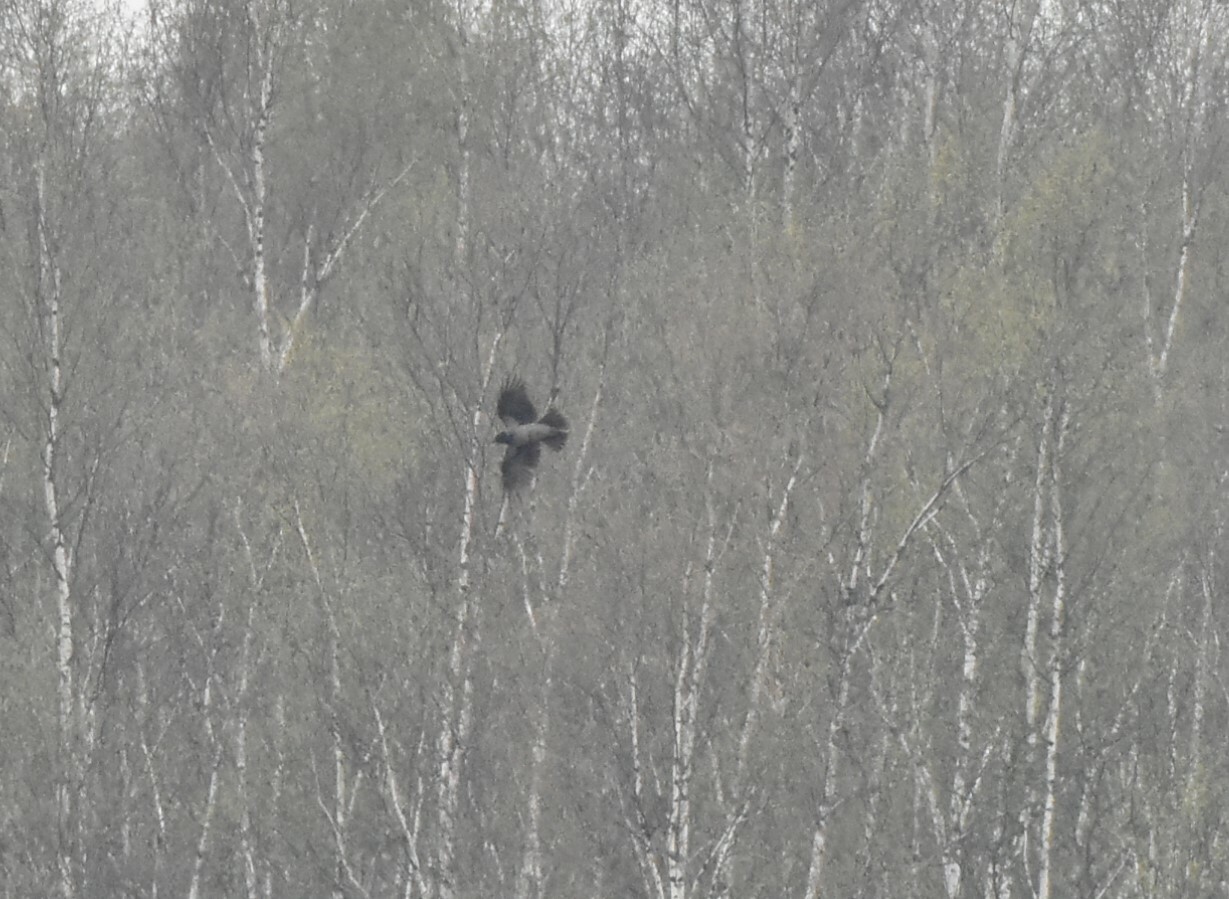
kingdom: Animalia
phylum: Chordata
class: Aves
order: Passeriformes
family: Corvidae
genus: Corvus
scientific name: Corvus cornix
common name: Hooded crow
